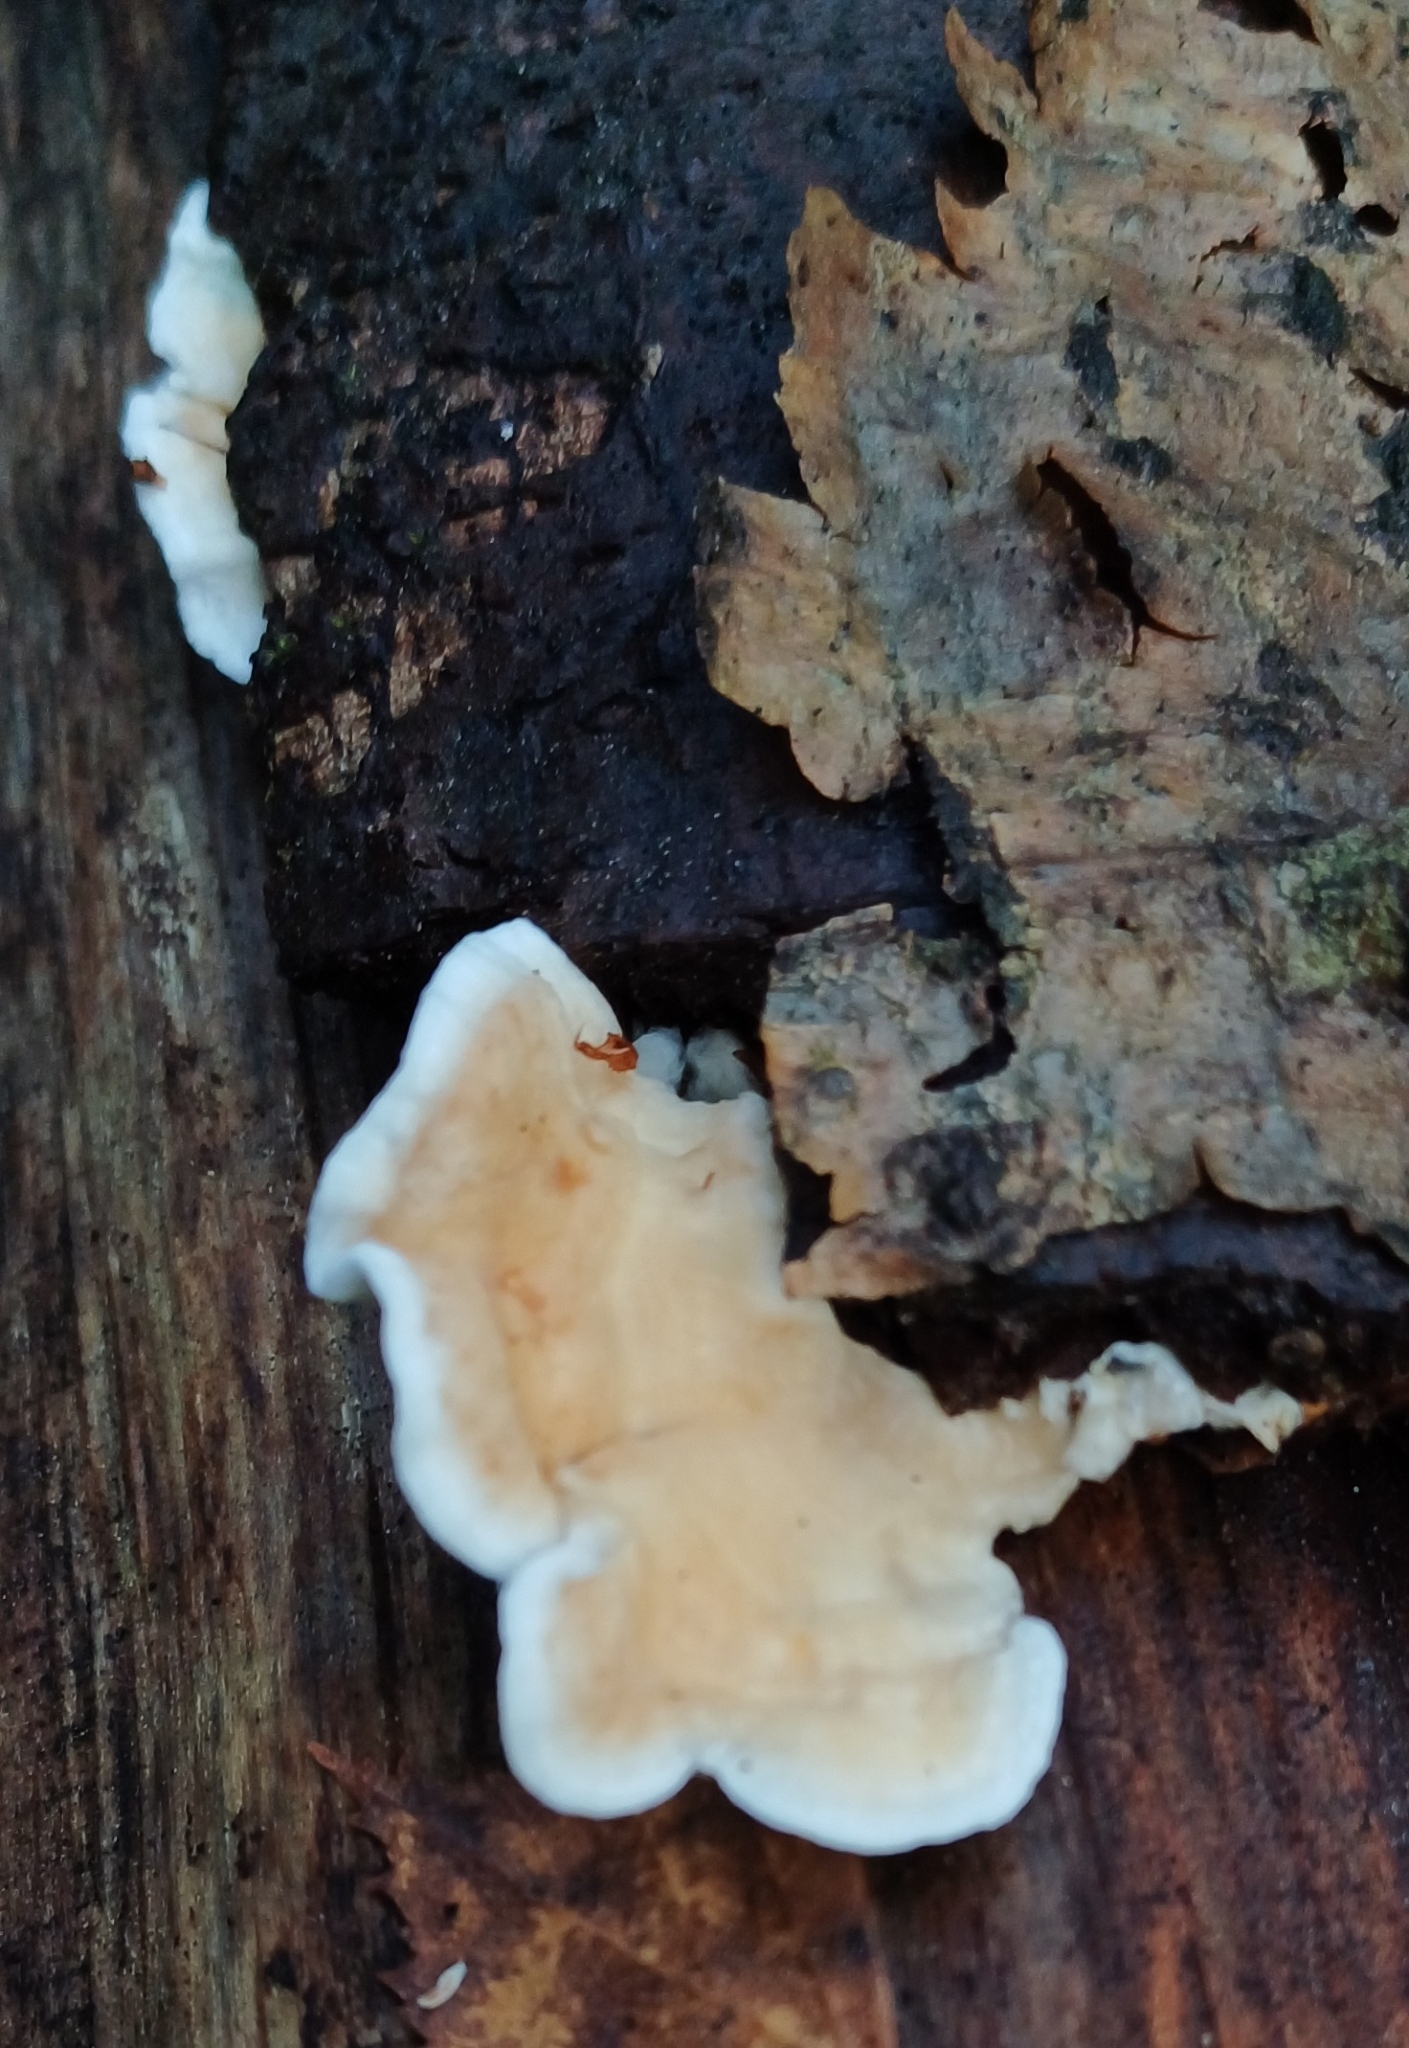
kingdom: Fungi
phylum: Basidiomycota
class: Agaricomycetes
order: Agaricales
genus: Plicatura
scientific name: Plicatura nivea
